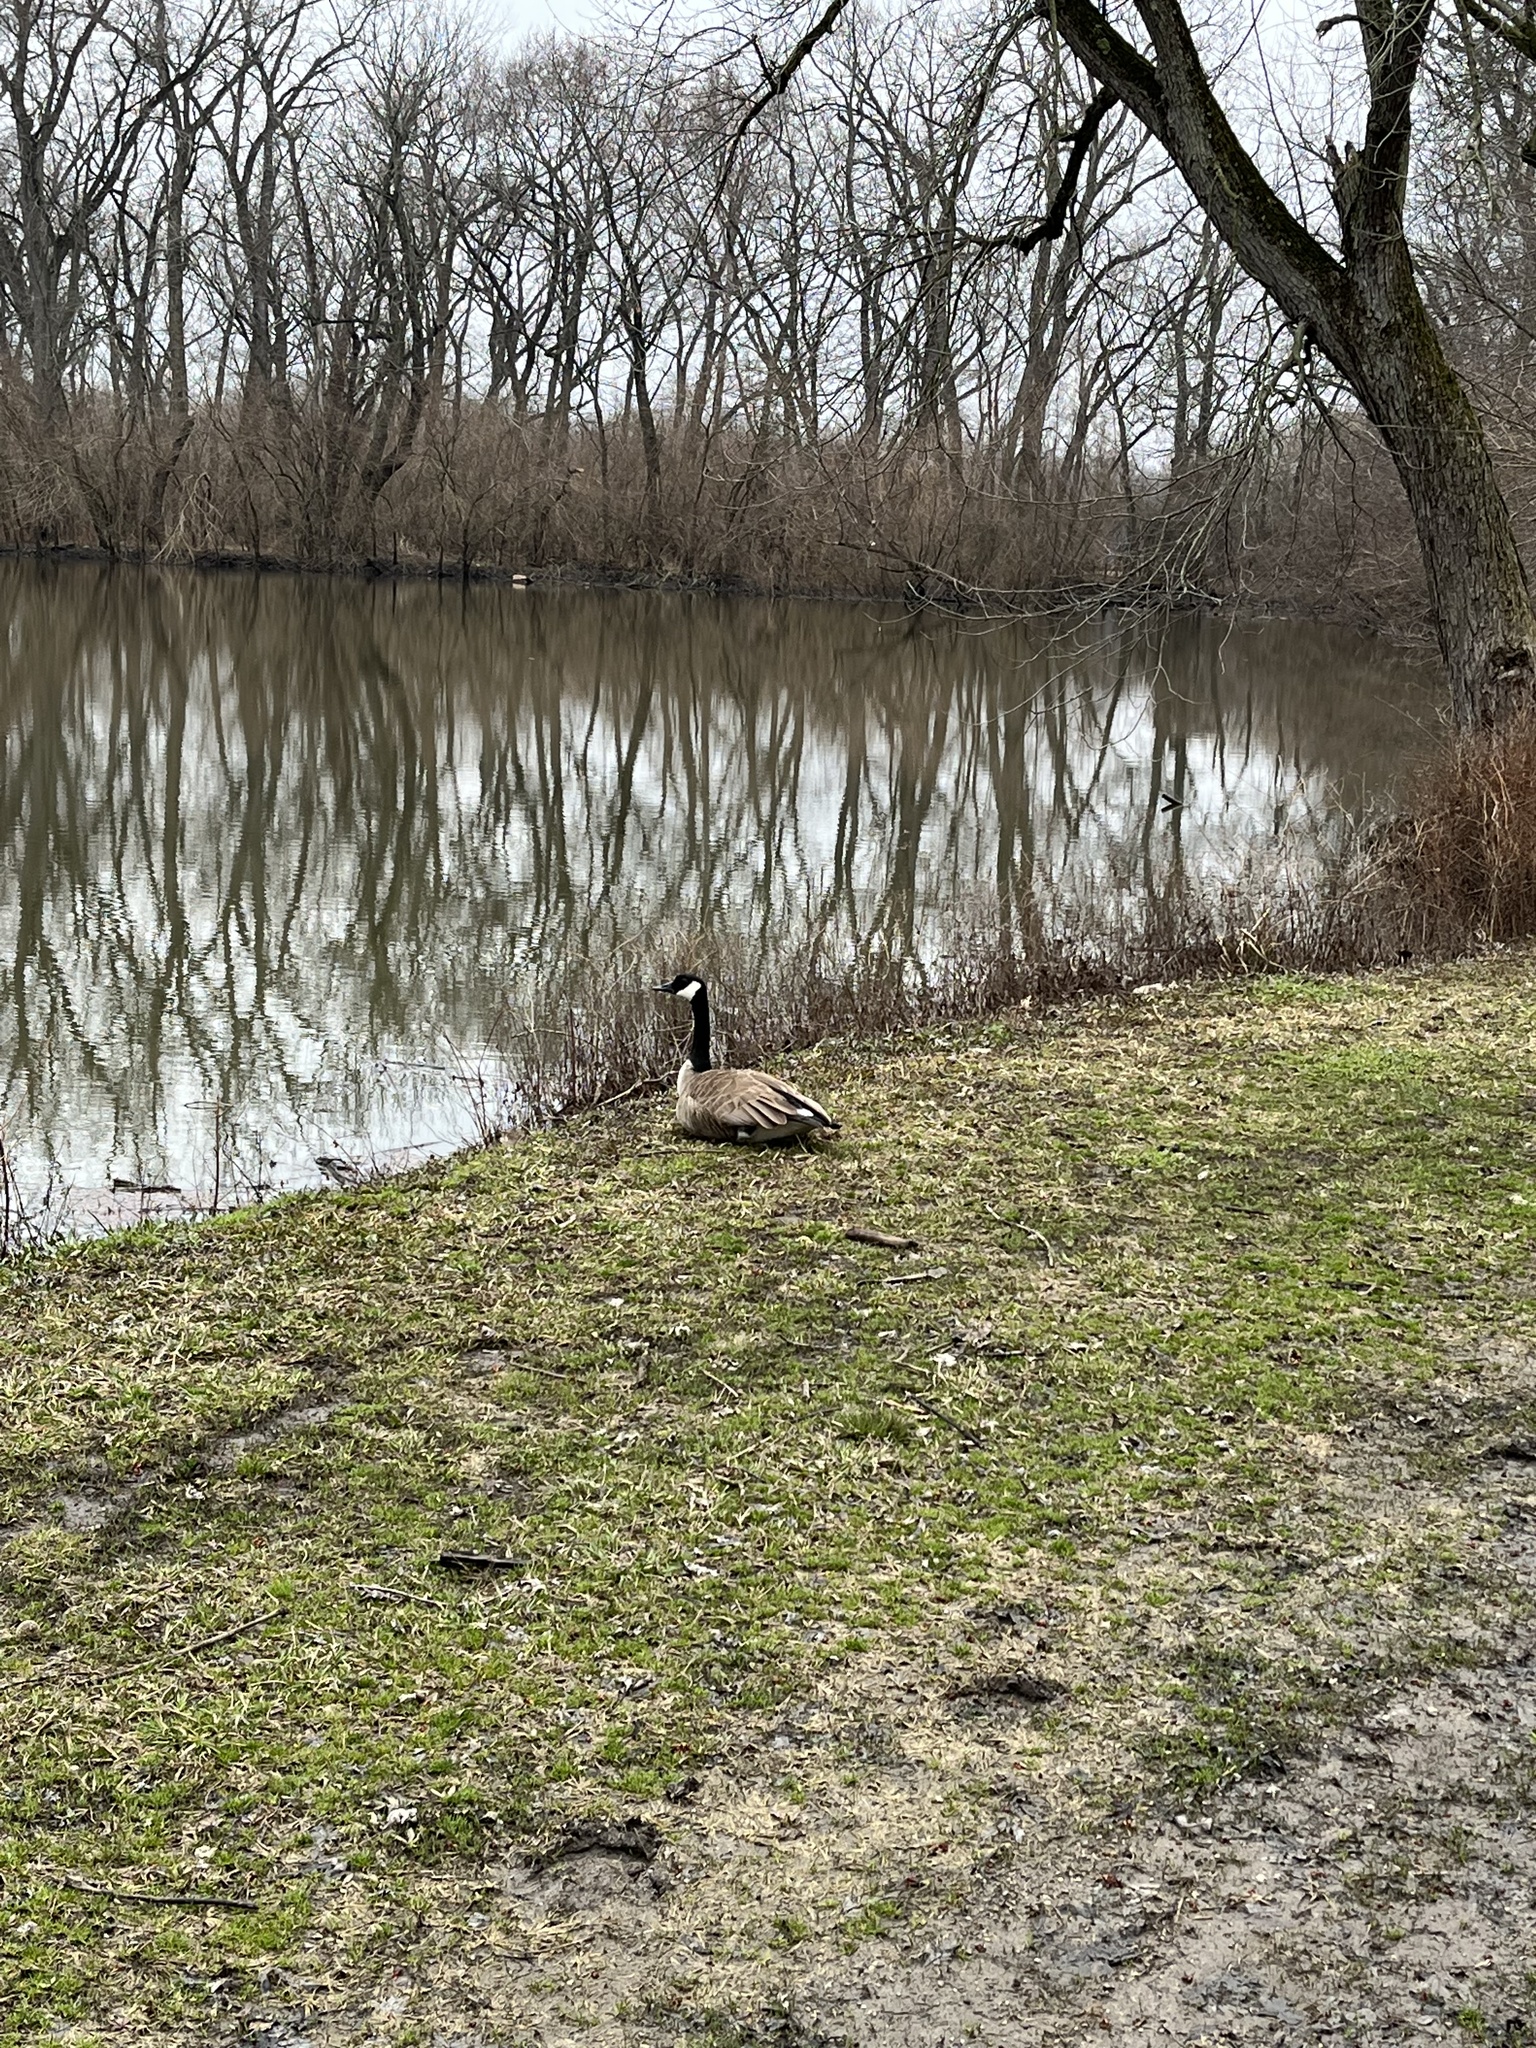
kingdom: Animalia
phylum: Chordata
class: Aves
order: Anseriformes
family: Anatidae
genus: Branta
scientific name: Branta canadensis
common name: Canada goose
